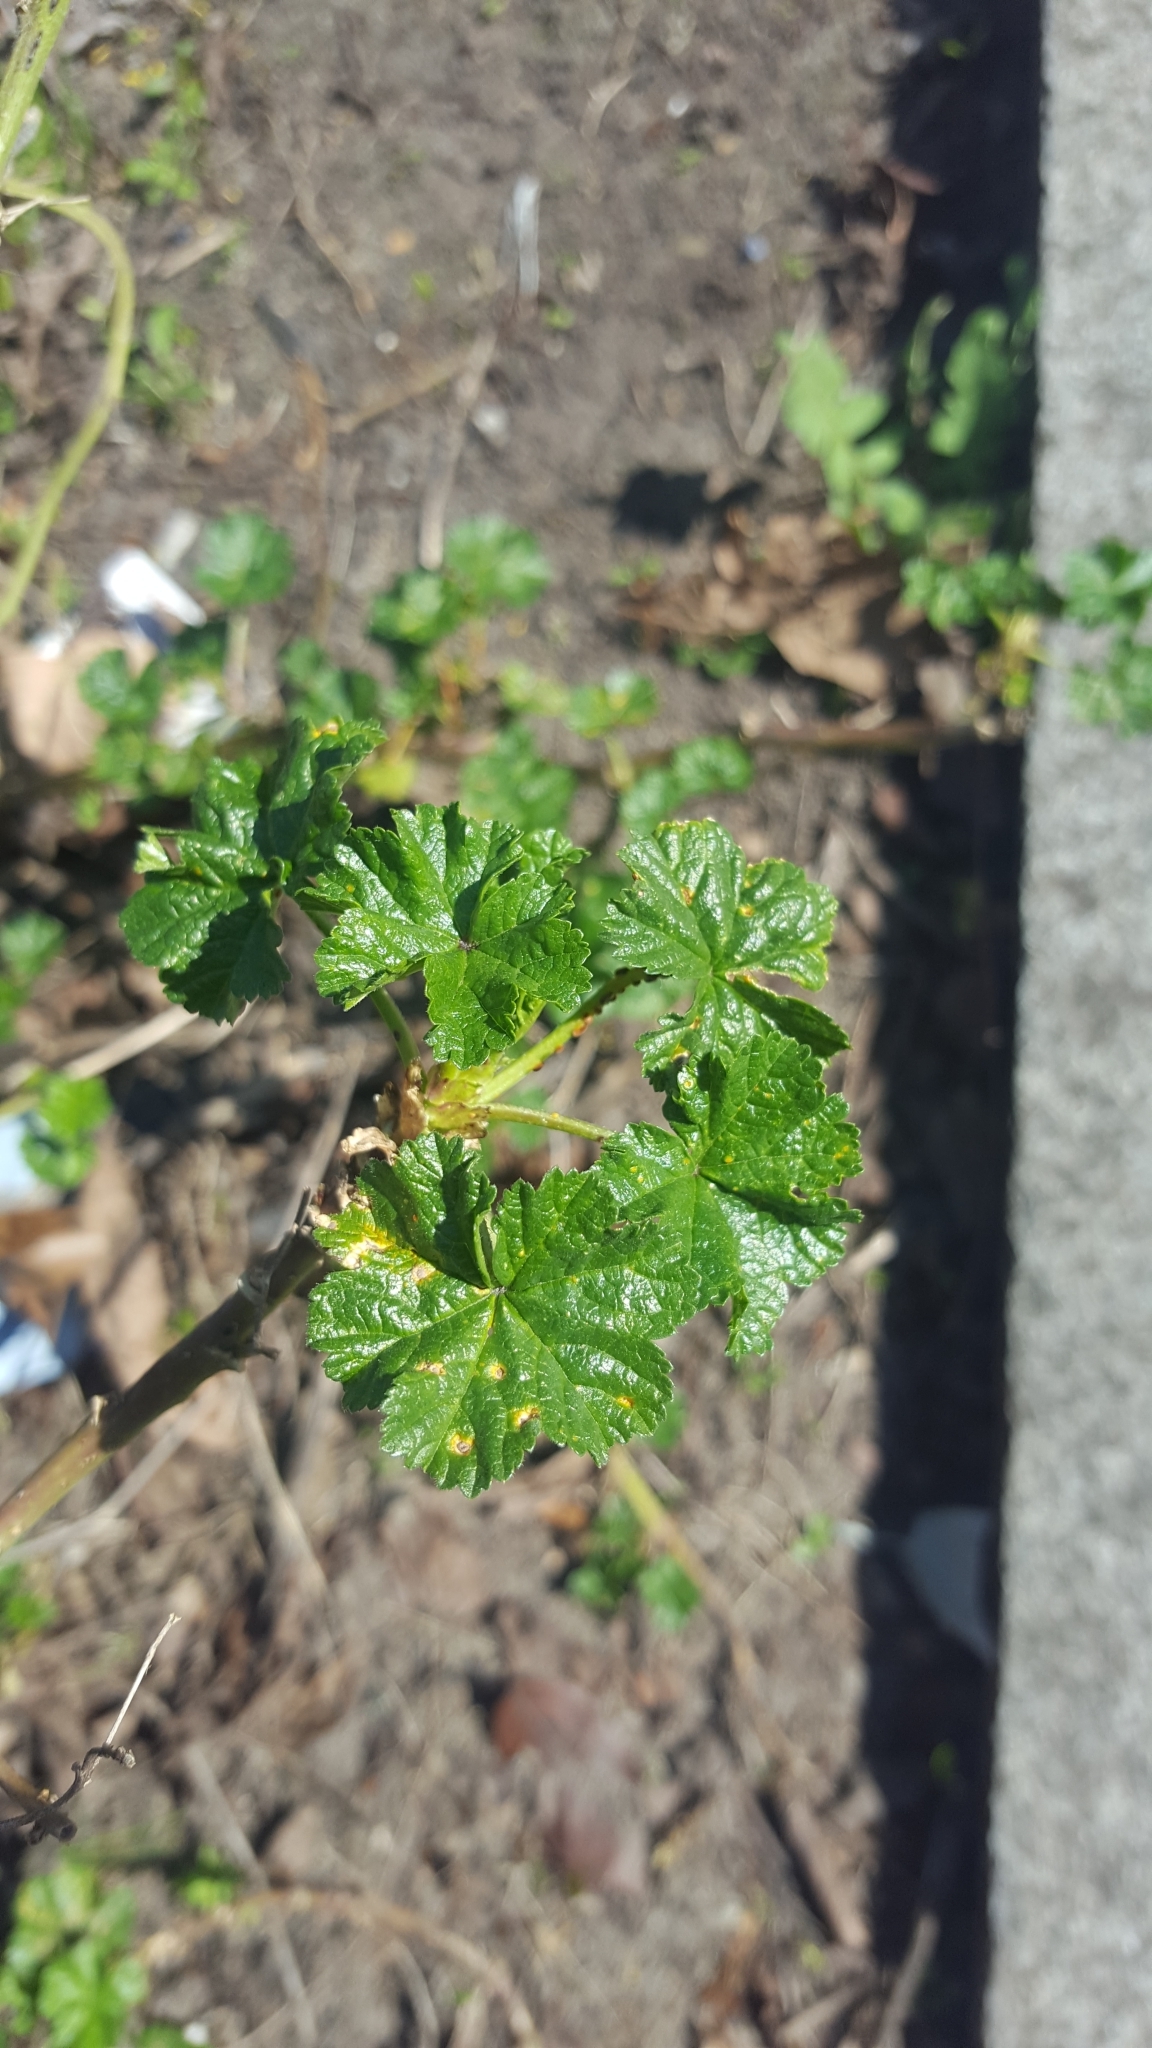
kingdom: Fungi
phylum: Basidiomycota
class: Pucciniomycetes
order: Pucciniales
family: Pucciniaceae
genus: Puccinia
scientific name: Puccinia malvacearum
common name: Hollyhock rust
